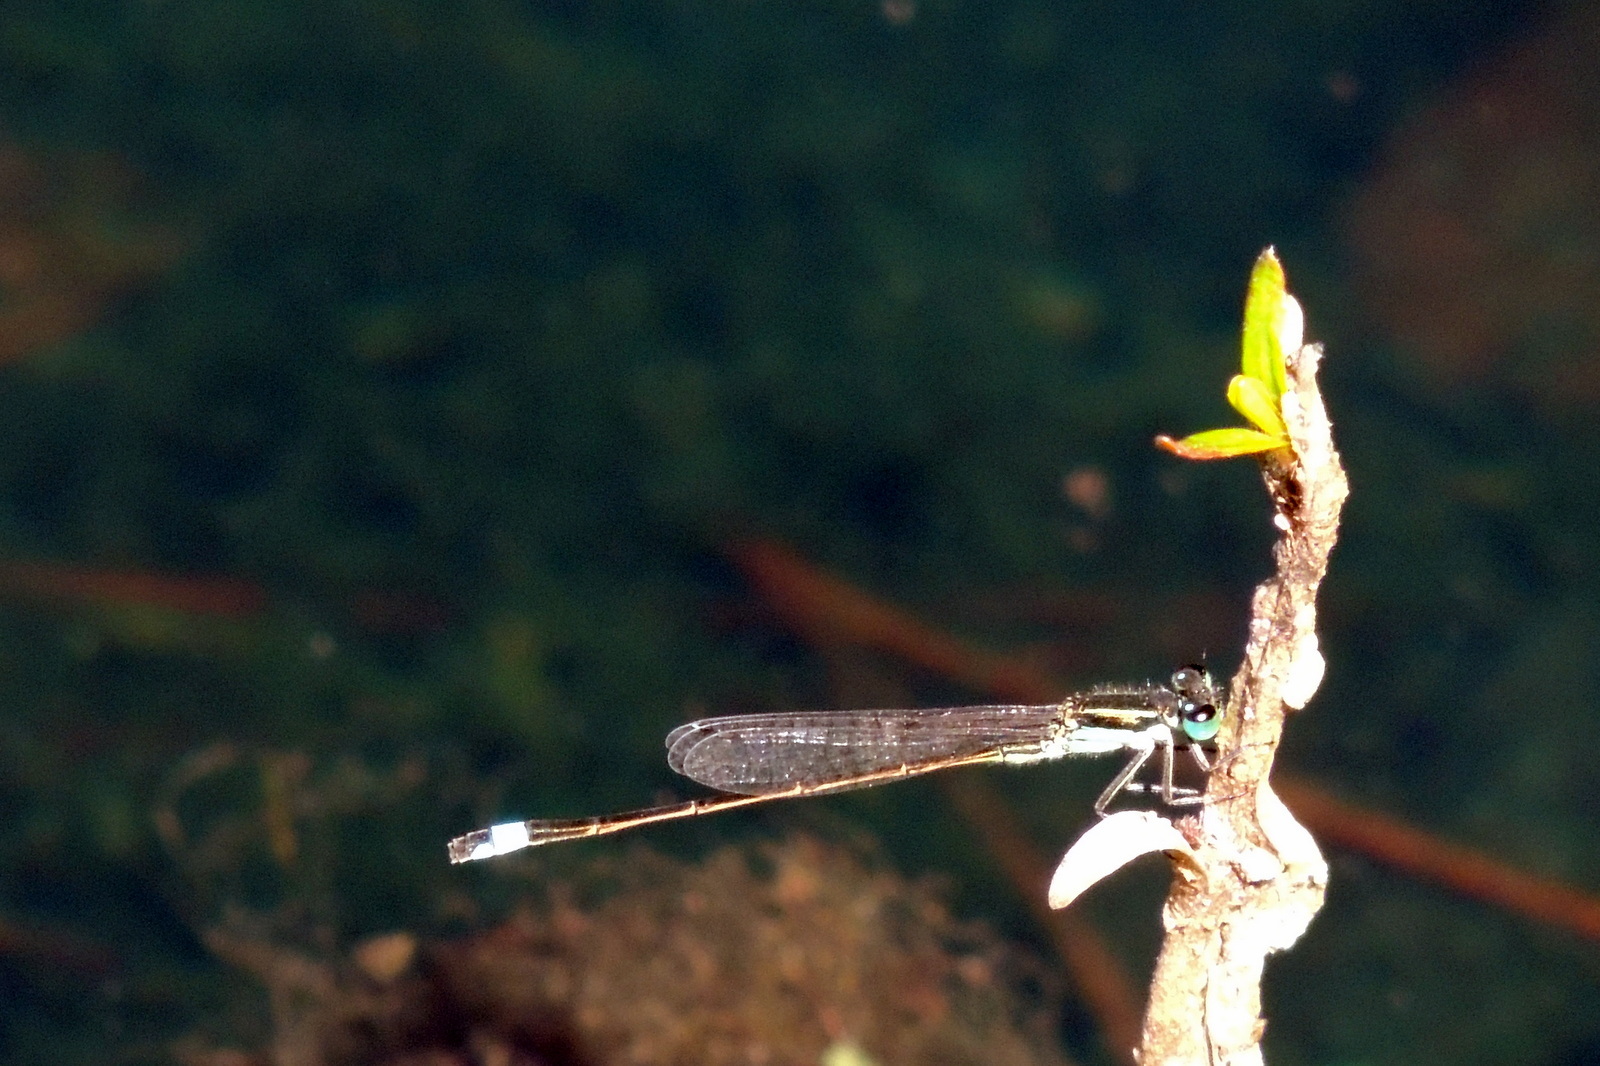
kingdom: Animalia
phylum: Arthropoda
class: Insecta
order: Odonata
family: Coenagrionidae
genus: Ischnura
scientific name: Ischnura ramburii
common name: Rambur's forktail
